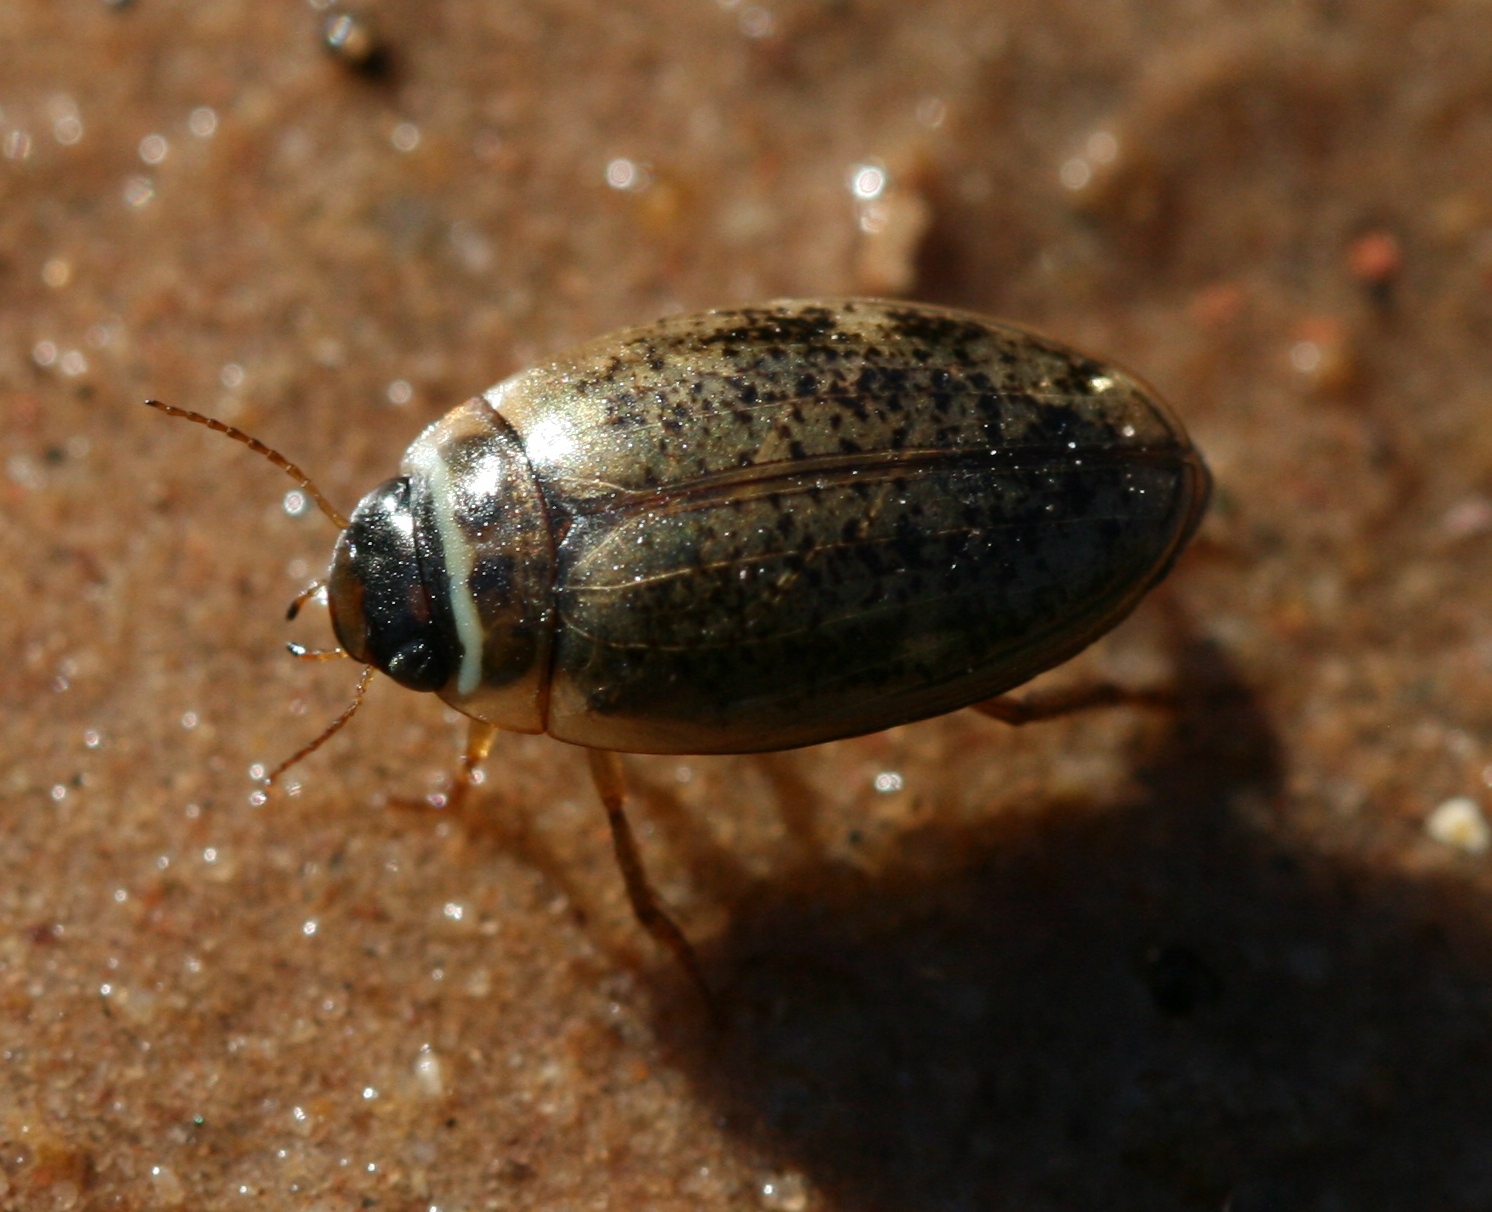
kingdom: Animalia
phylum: Arthropoda
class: Insecta
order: Coleoptera
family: Dytiscidae
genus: Agabus
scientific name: Agabus nebulosus
